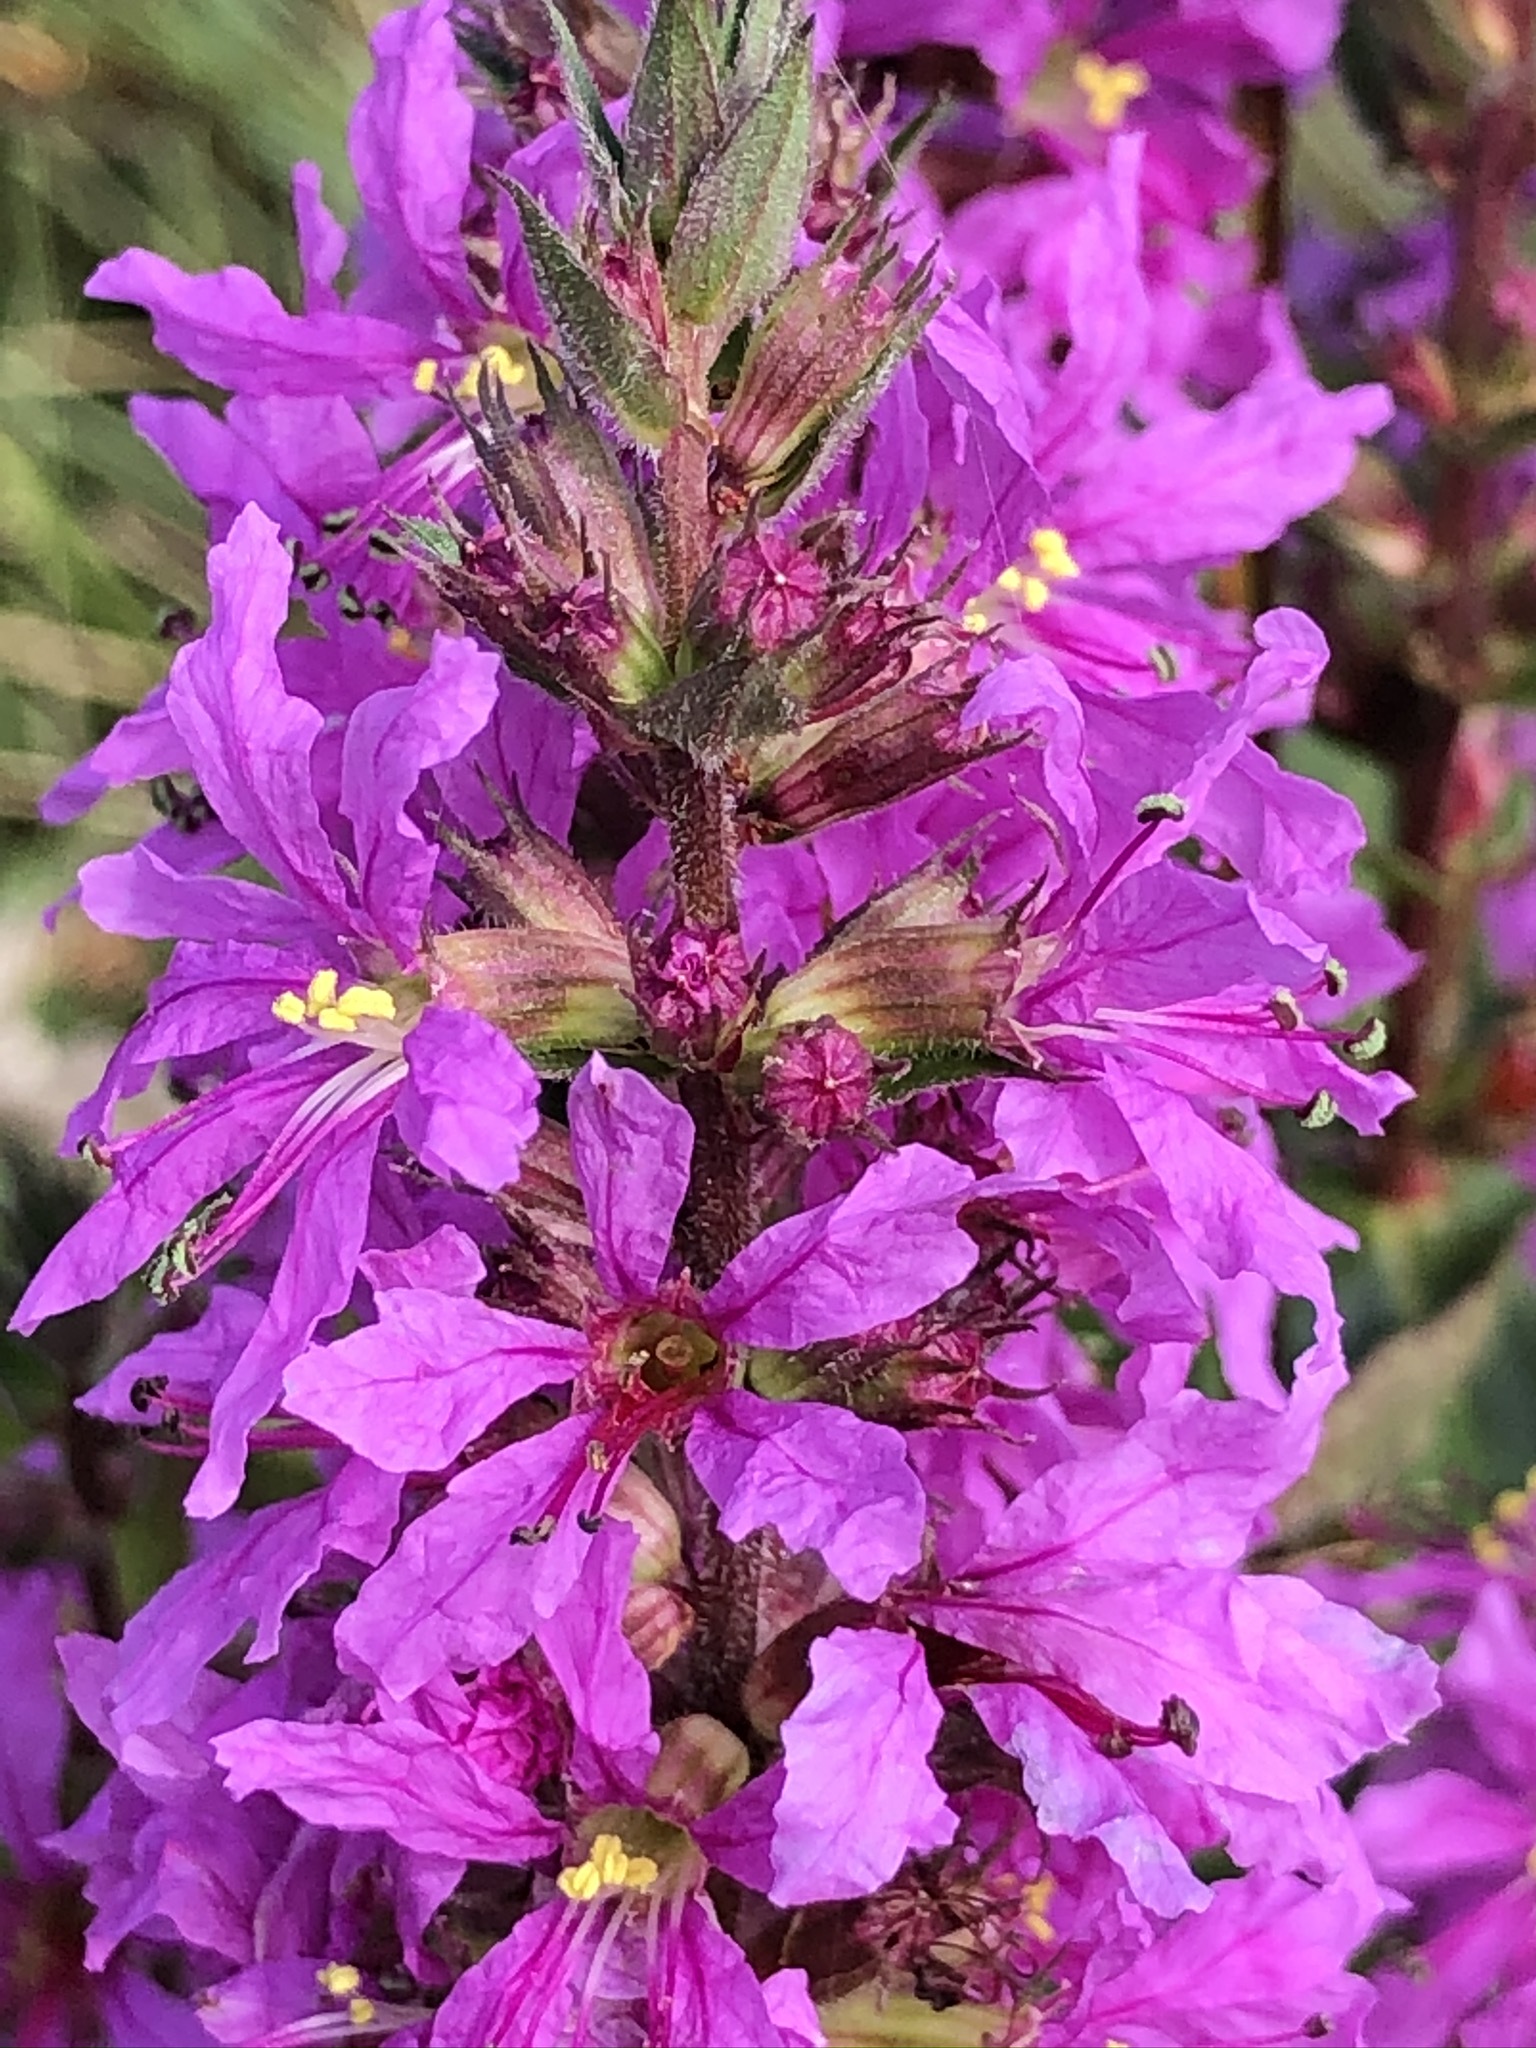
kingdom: Plantae
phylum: Tracheophyta
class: Magnoliopsida
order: Myrtales
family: Lythraceae
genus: Lythrum
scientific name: Lythrum salicaria
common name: Purple loosestrife
